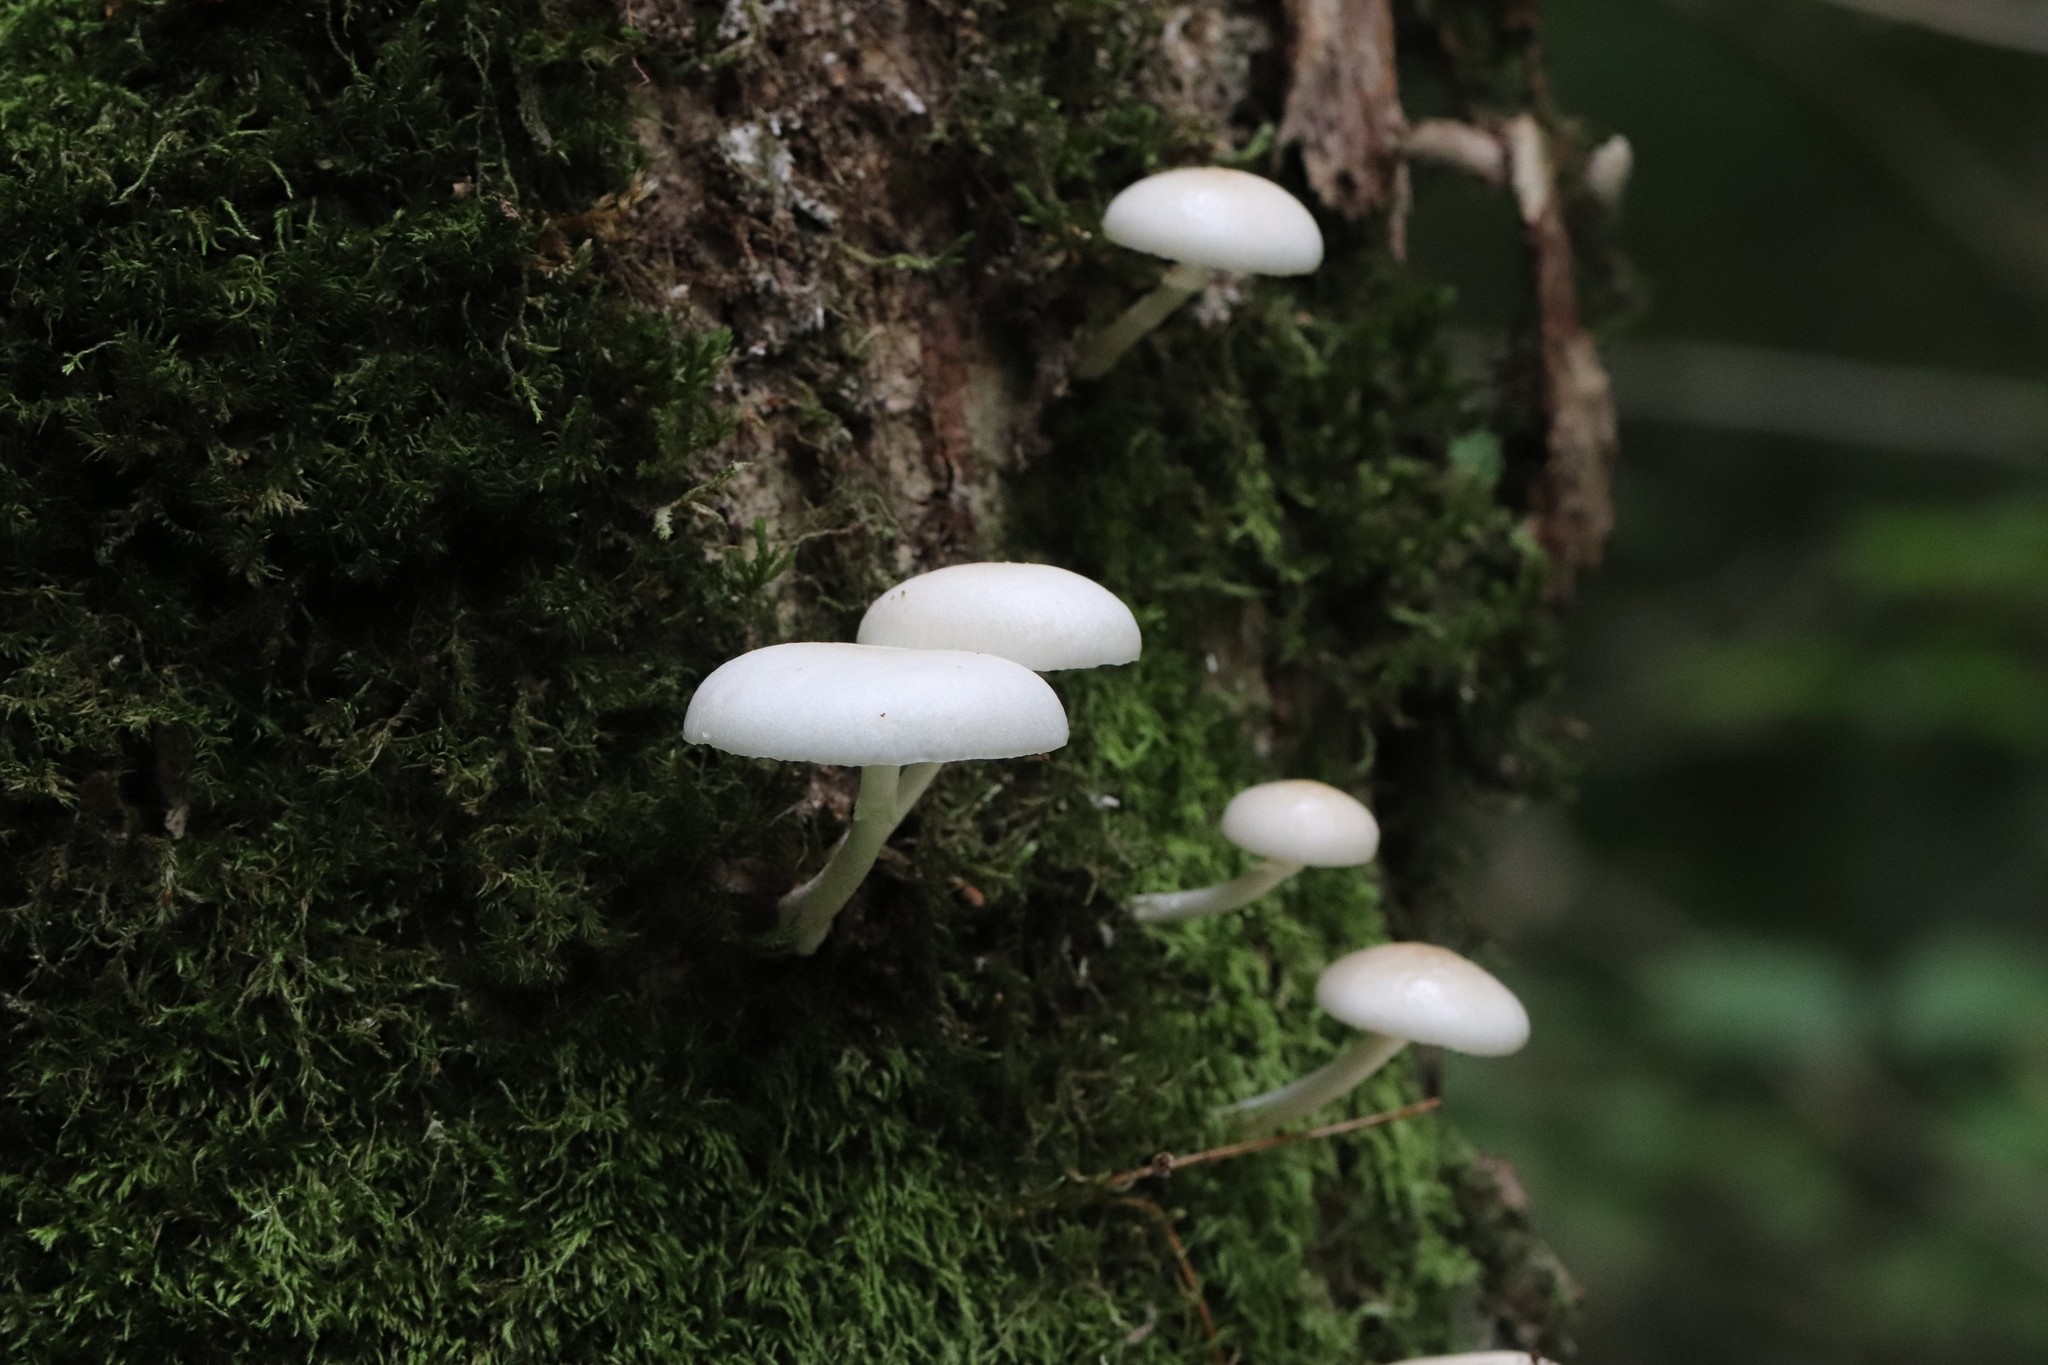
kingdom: Fungi
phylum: Basidiomycota
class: Agaricomycetes
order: Agaricales
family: Physalacriaceae
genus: Mucidula
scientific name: Mucidula mucida
